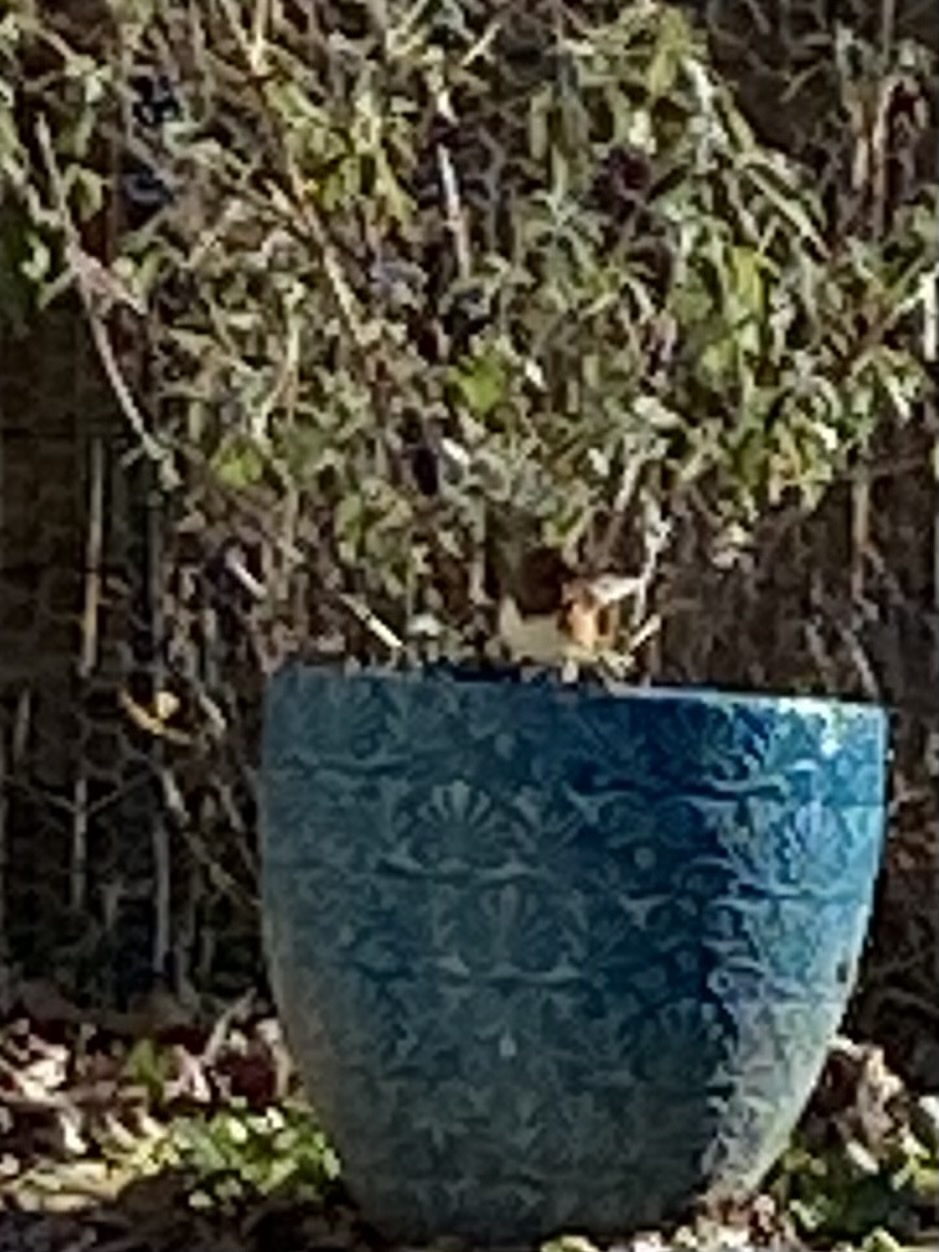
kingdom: Animalia
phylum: Chordata
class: Aves
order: Passeriformes
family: Passerellidae
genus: Pipilo
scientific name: Pipilo erythrophthalmus
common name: Eastern towhee
